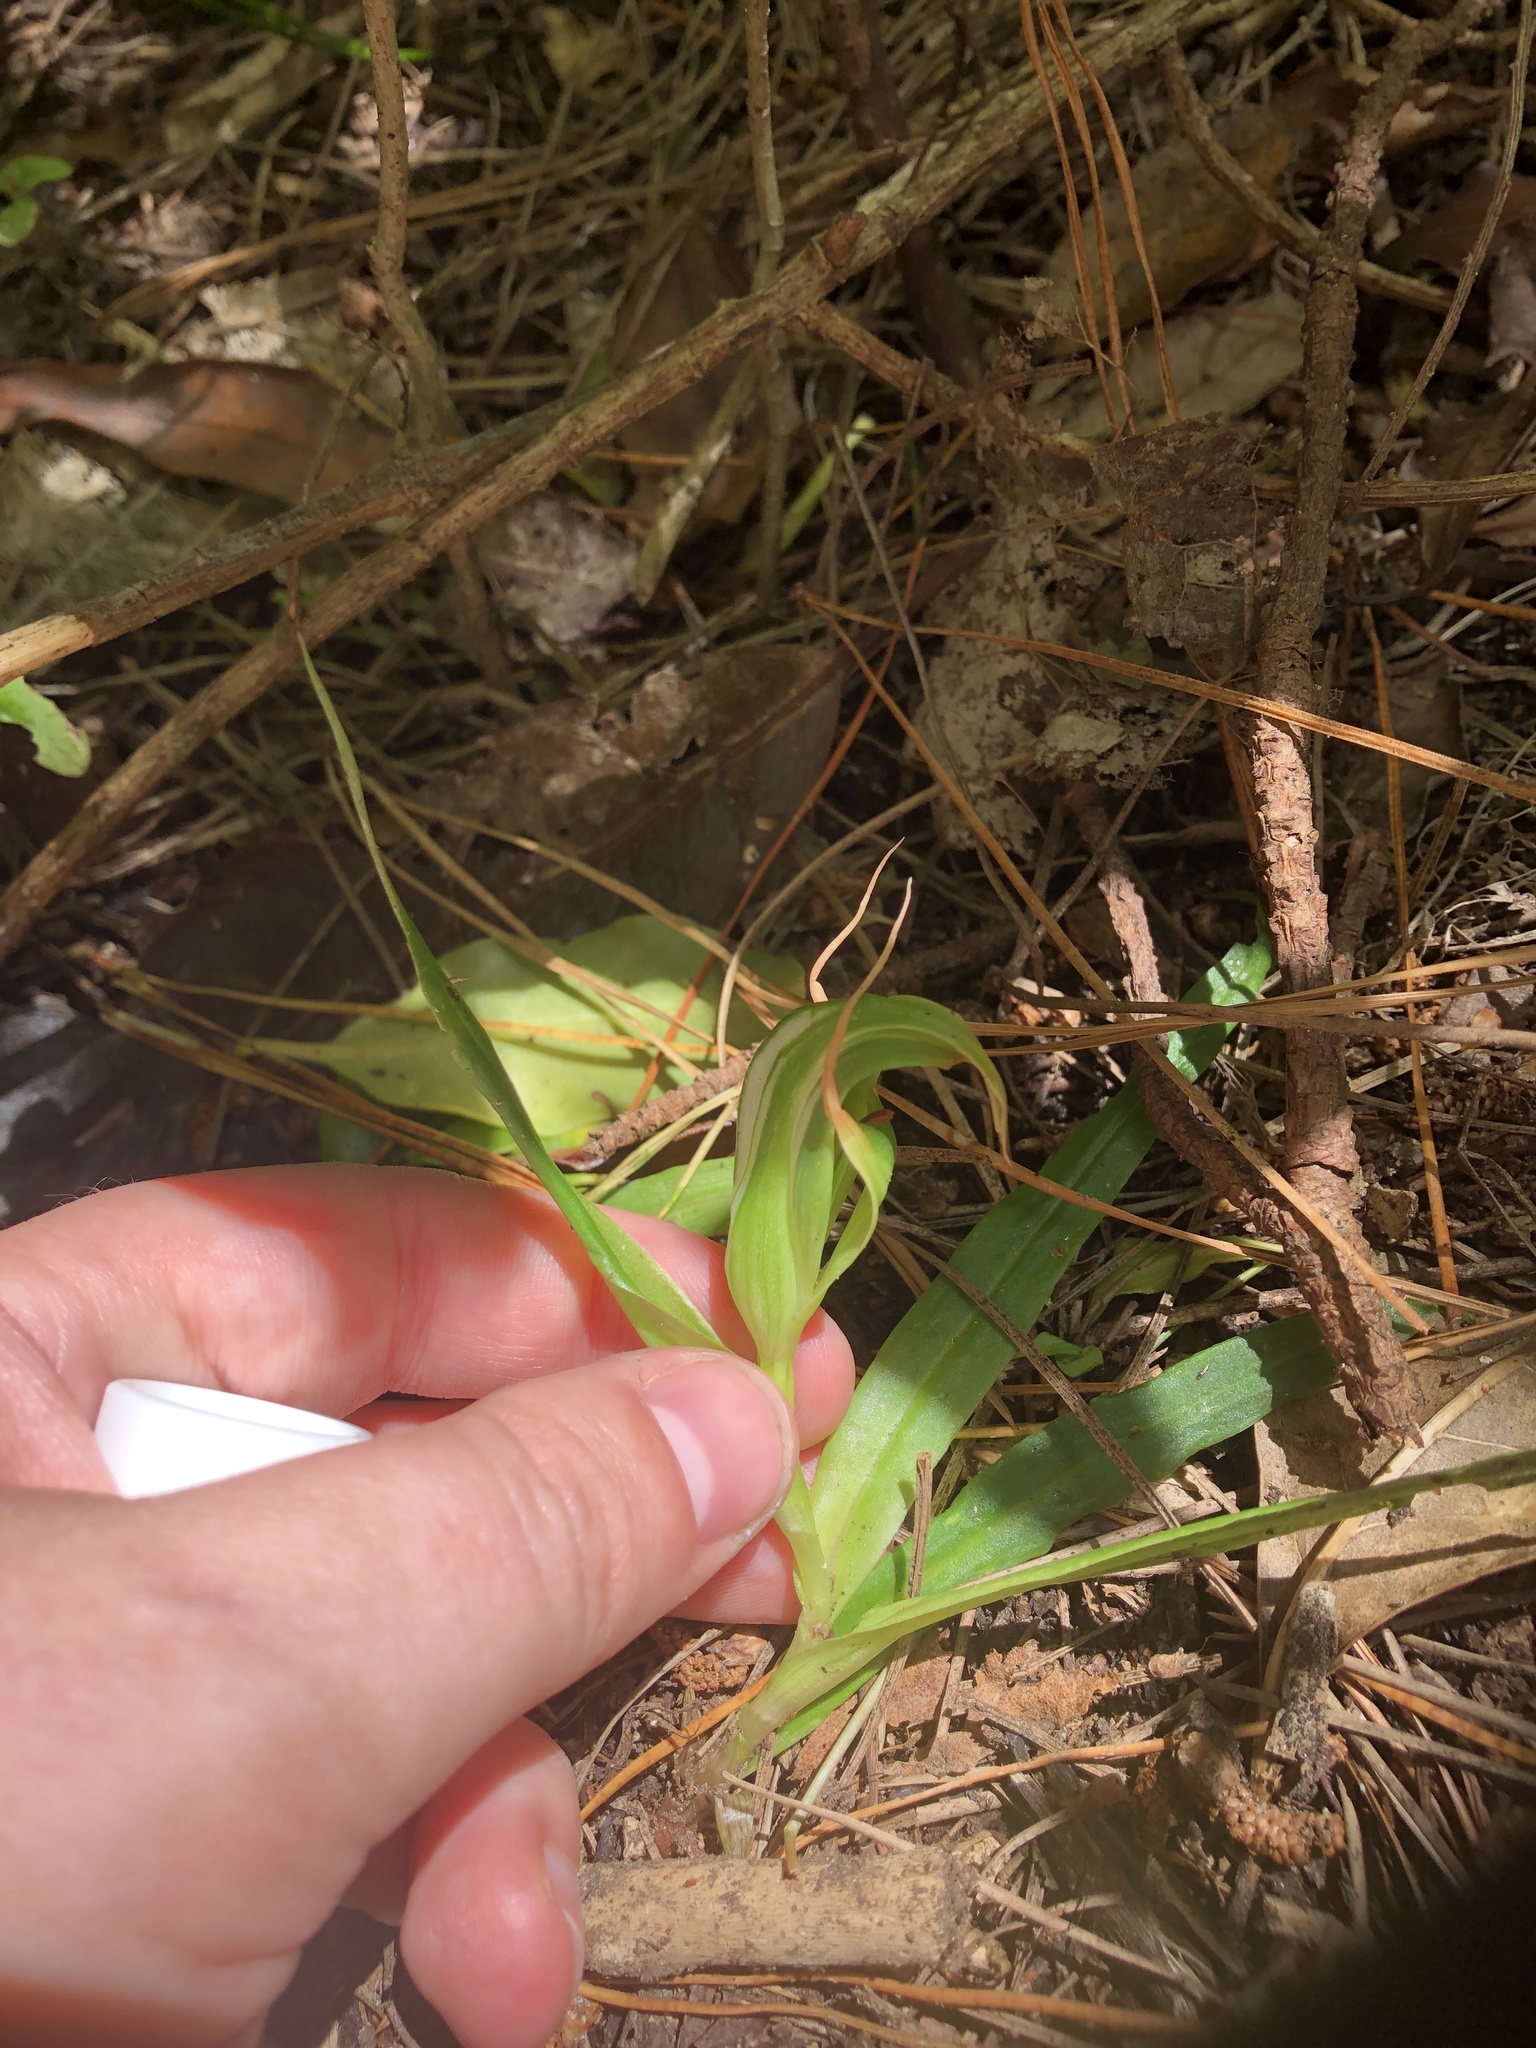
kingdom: Plantae
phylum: Tracheophyta
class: Liliopsida
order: Asparagales
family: Orchidaceae
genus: Pterostylis
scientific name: Pterostylis banksii
